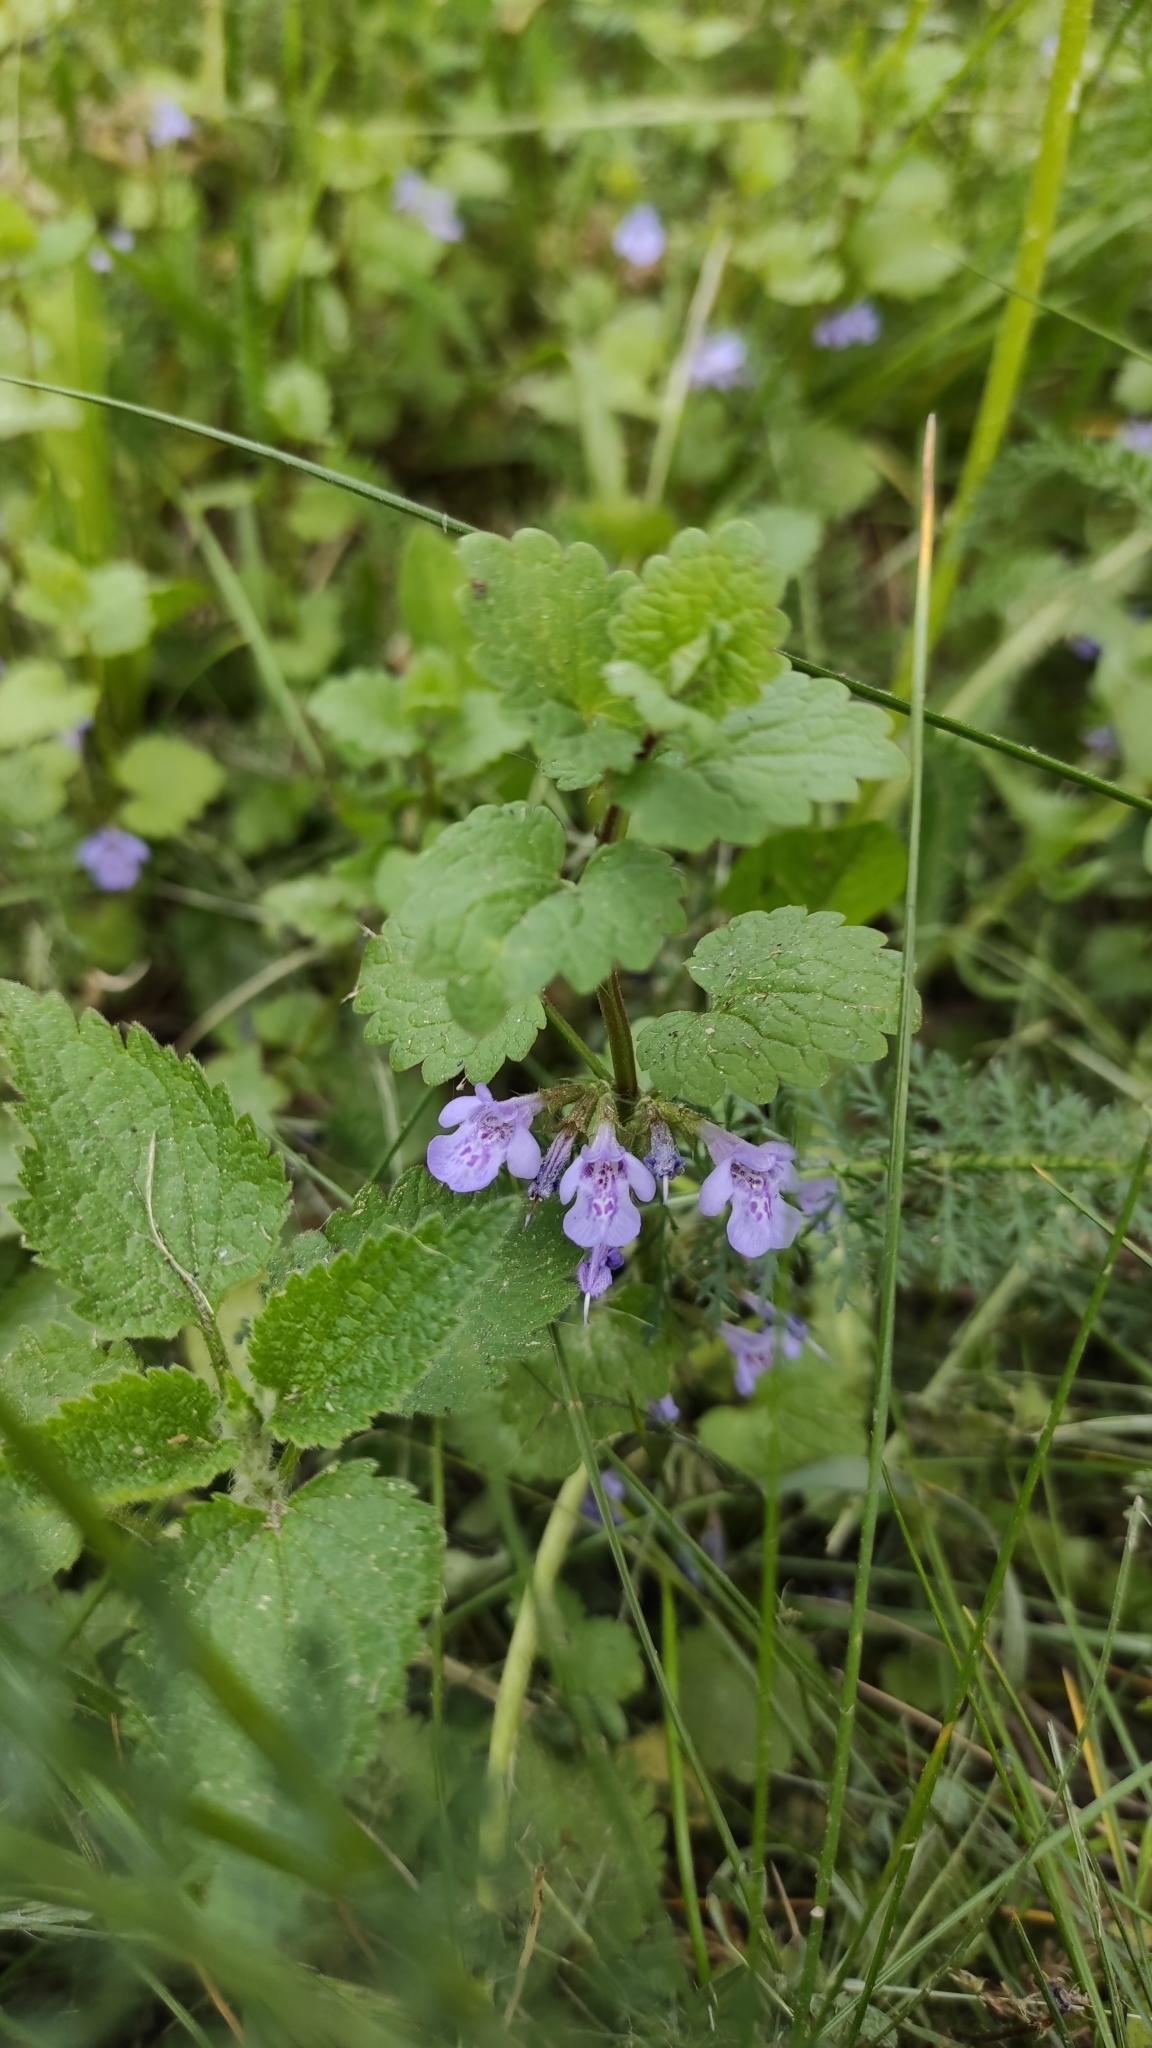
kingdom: Plantae
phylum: Tracheophyta
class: Magnoliopsida
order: Lamiales
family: Lamiaceae
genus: Glechoma
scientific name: Glechoma hederacea
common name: Ground ivy
